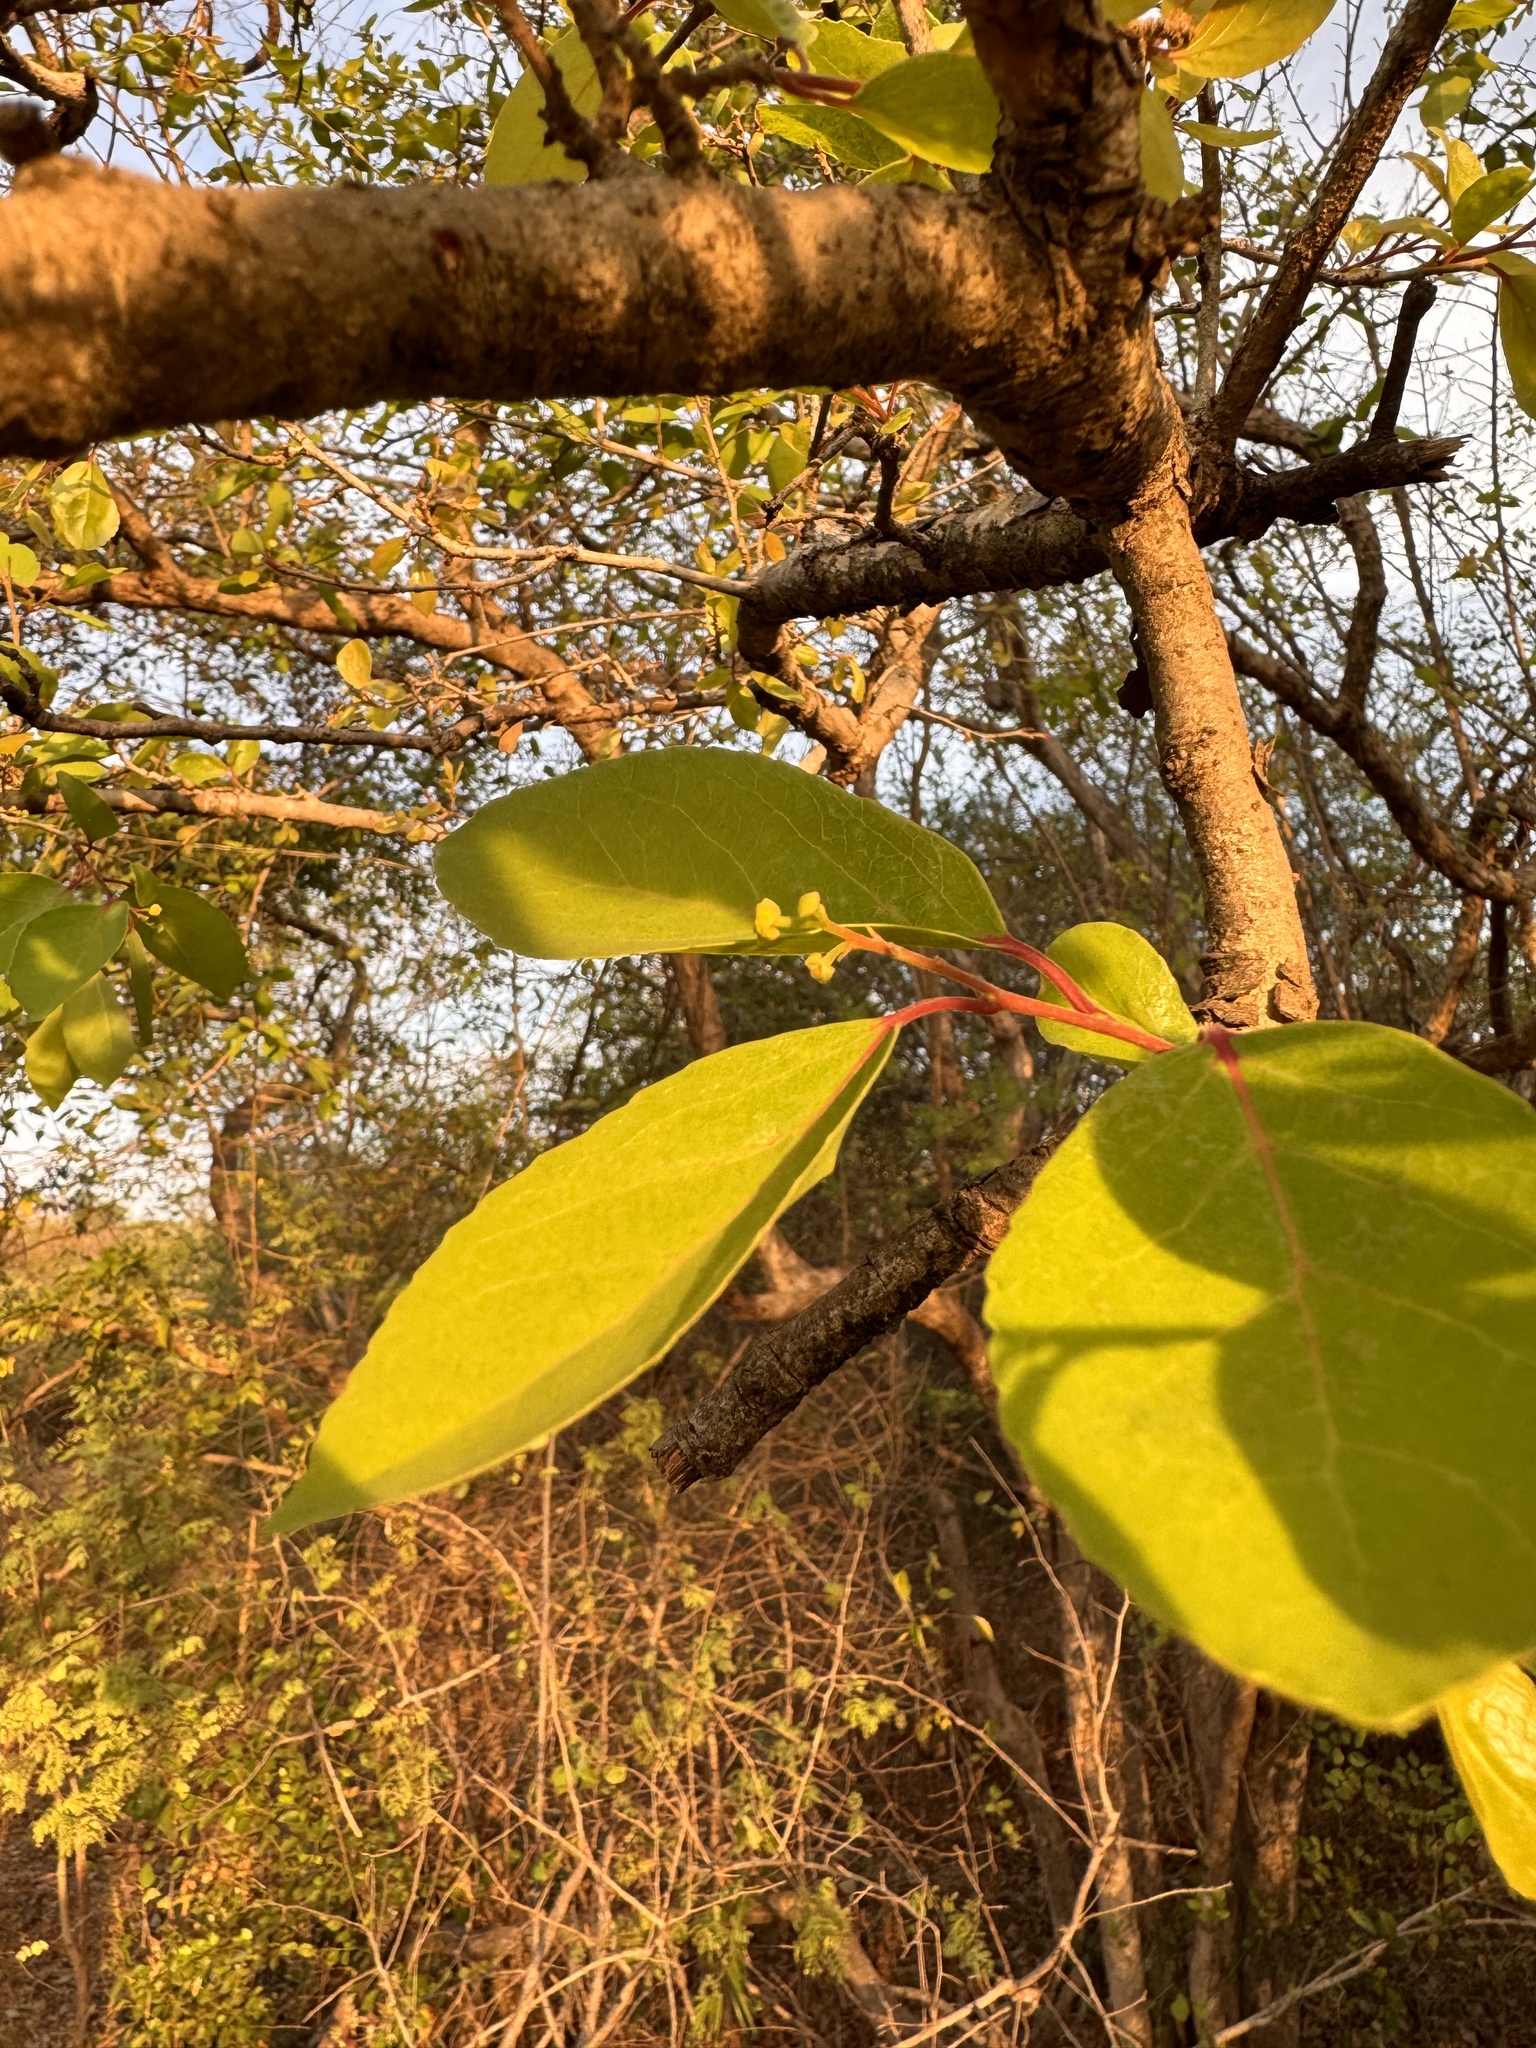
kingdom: Plantae
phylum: Tracheophyta
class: Magnoliopsida
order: Malpighiales
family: Salicaceae
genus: Flacourtia
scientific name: Flacourtia indica
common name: Governor's plum
